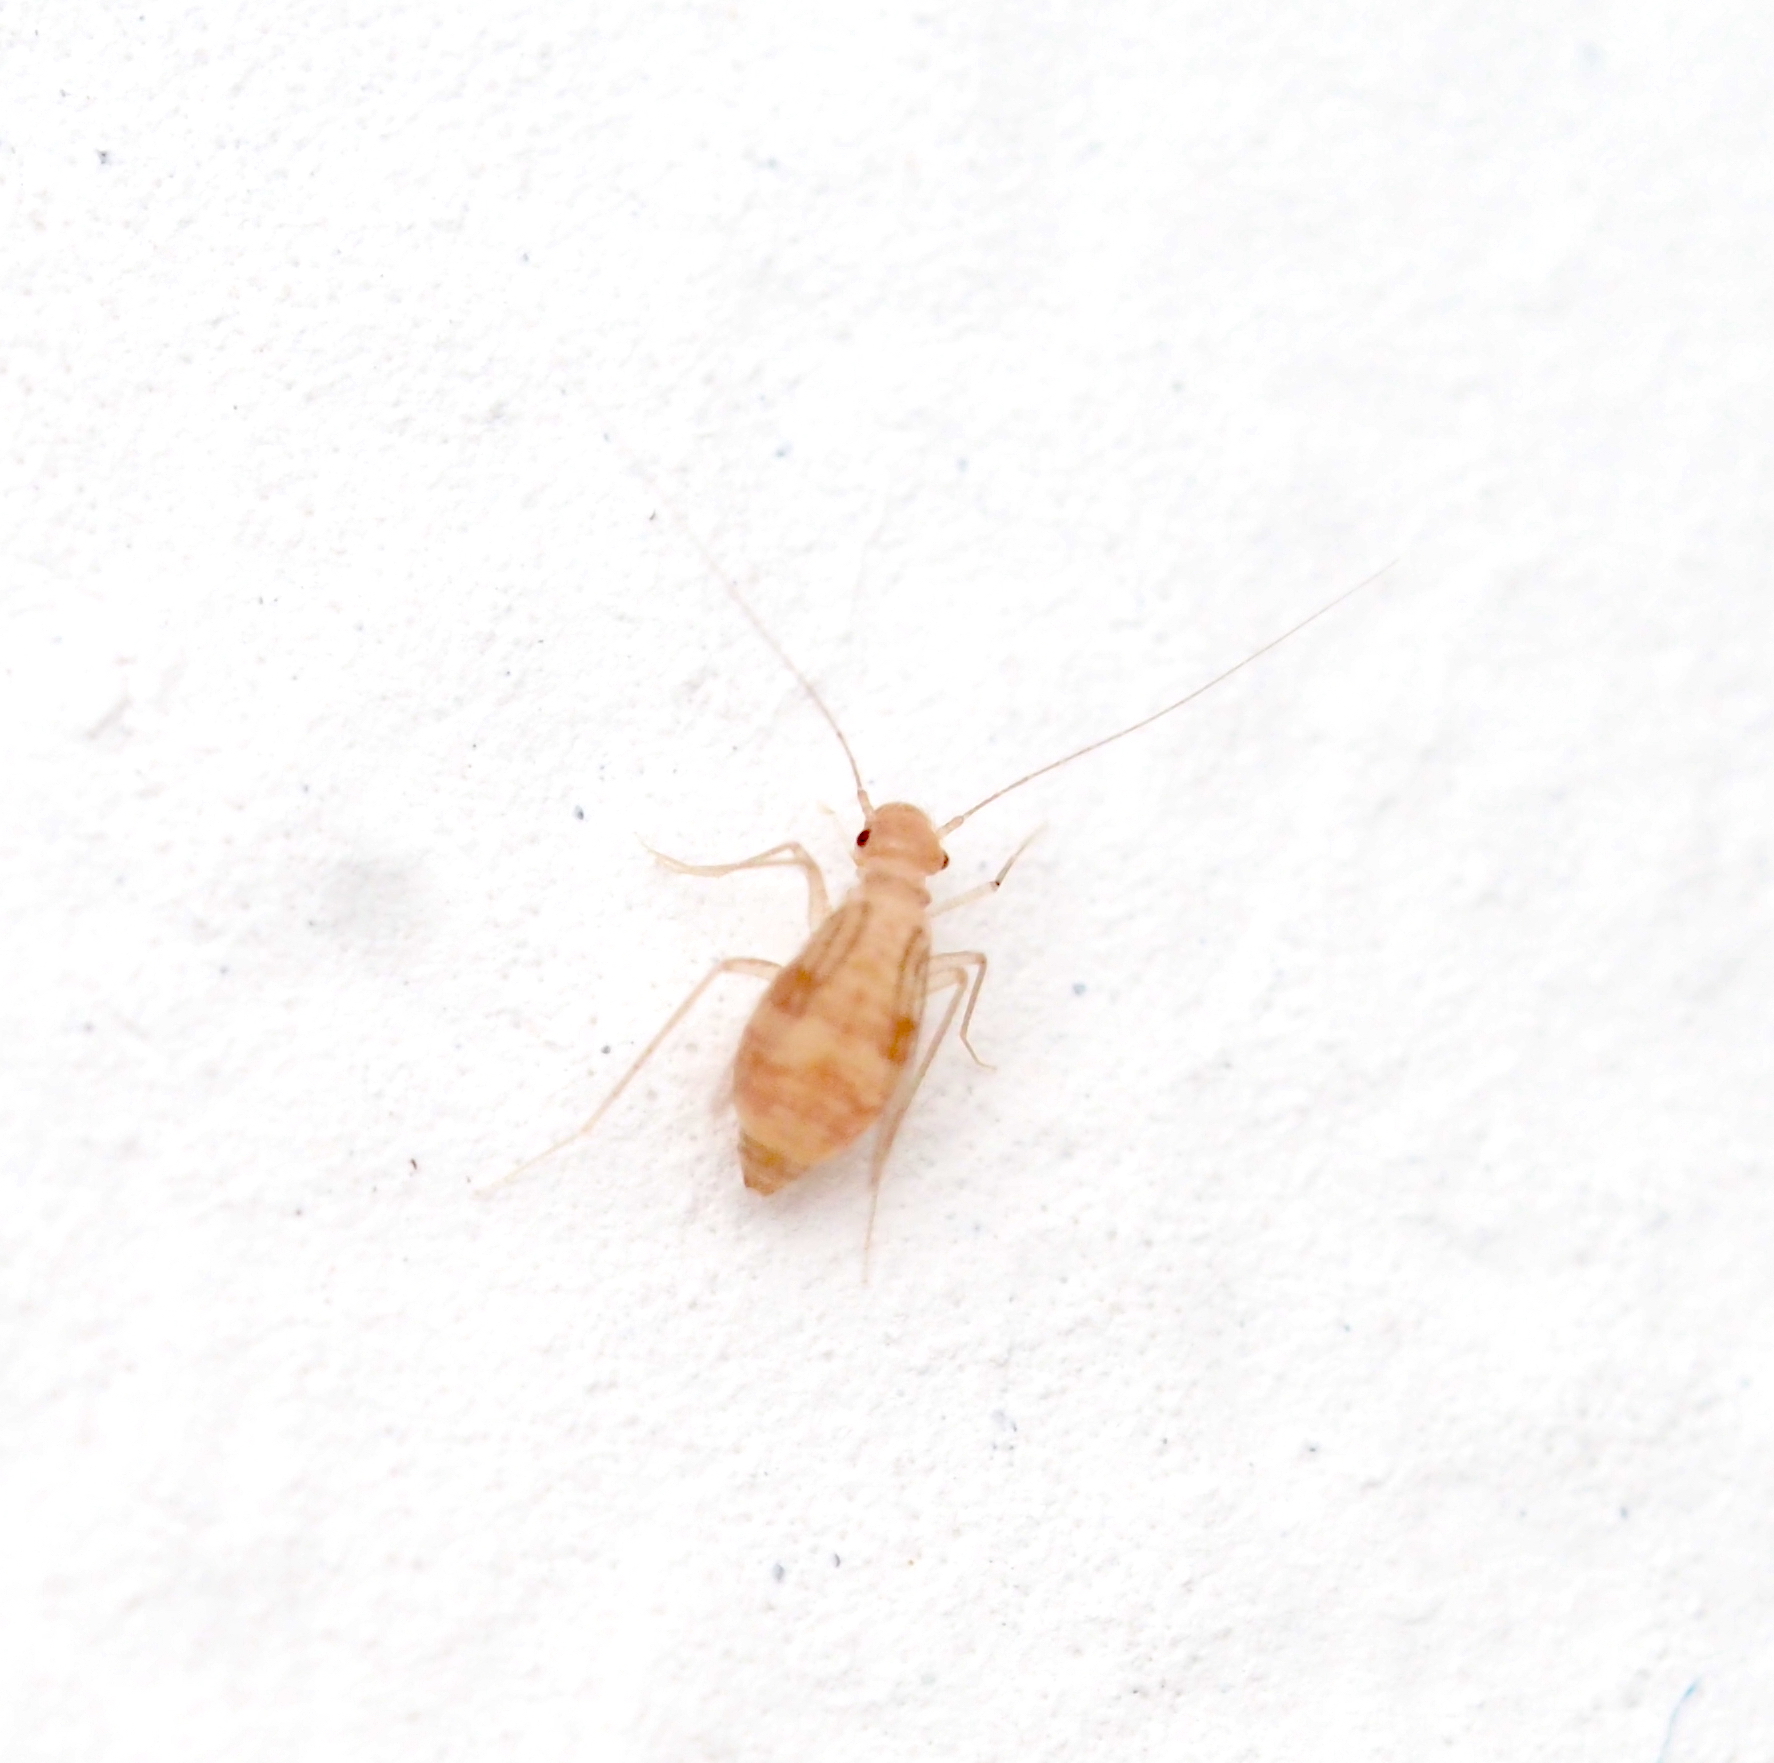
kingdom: Animalia
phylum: Arthropoda
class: Insecta
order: Psocodea
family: Psyllipsocidae
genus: Dorypteryx
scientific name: Dorypteryx domestica
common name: Cave barklouse
